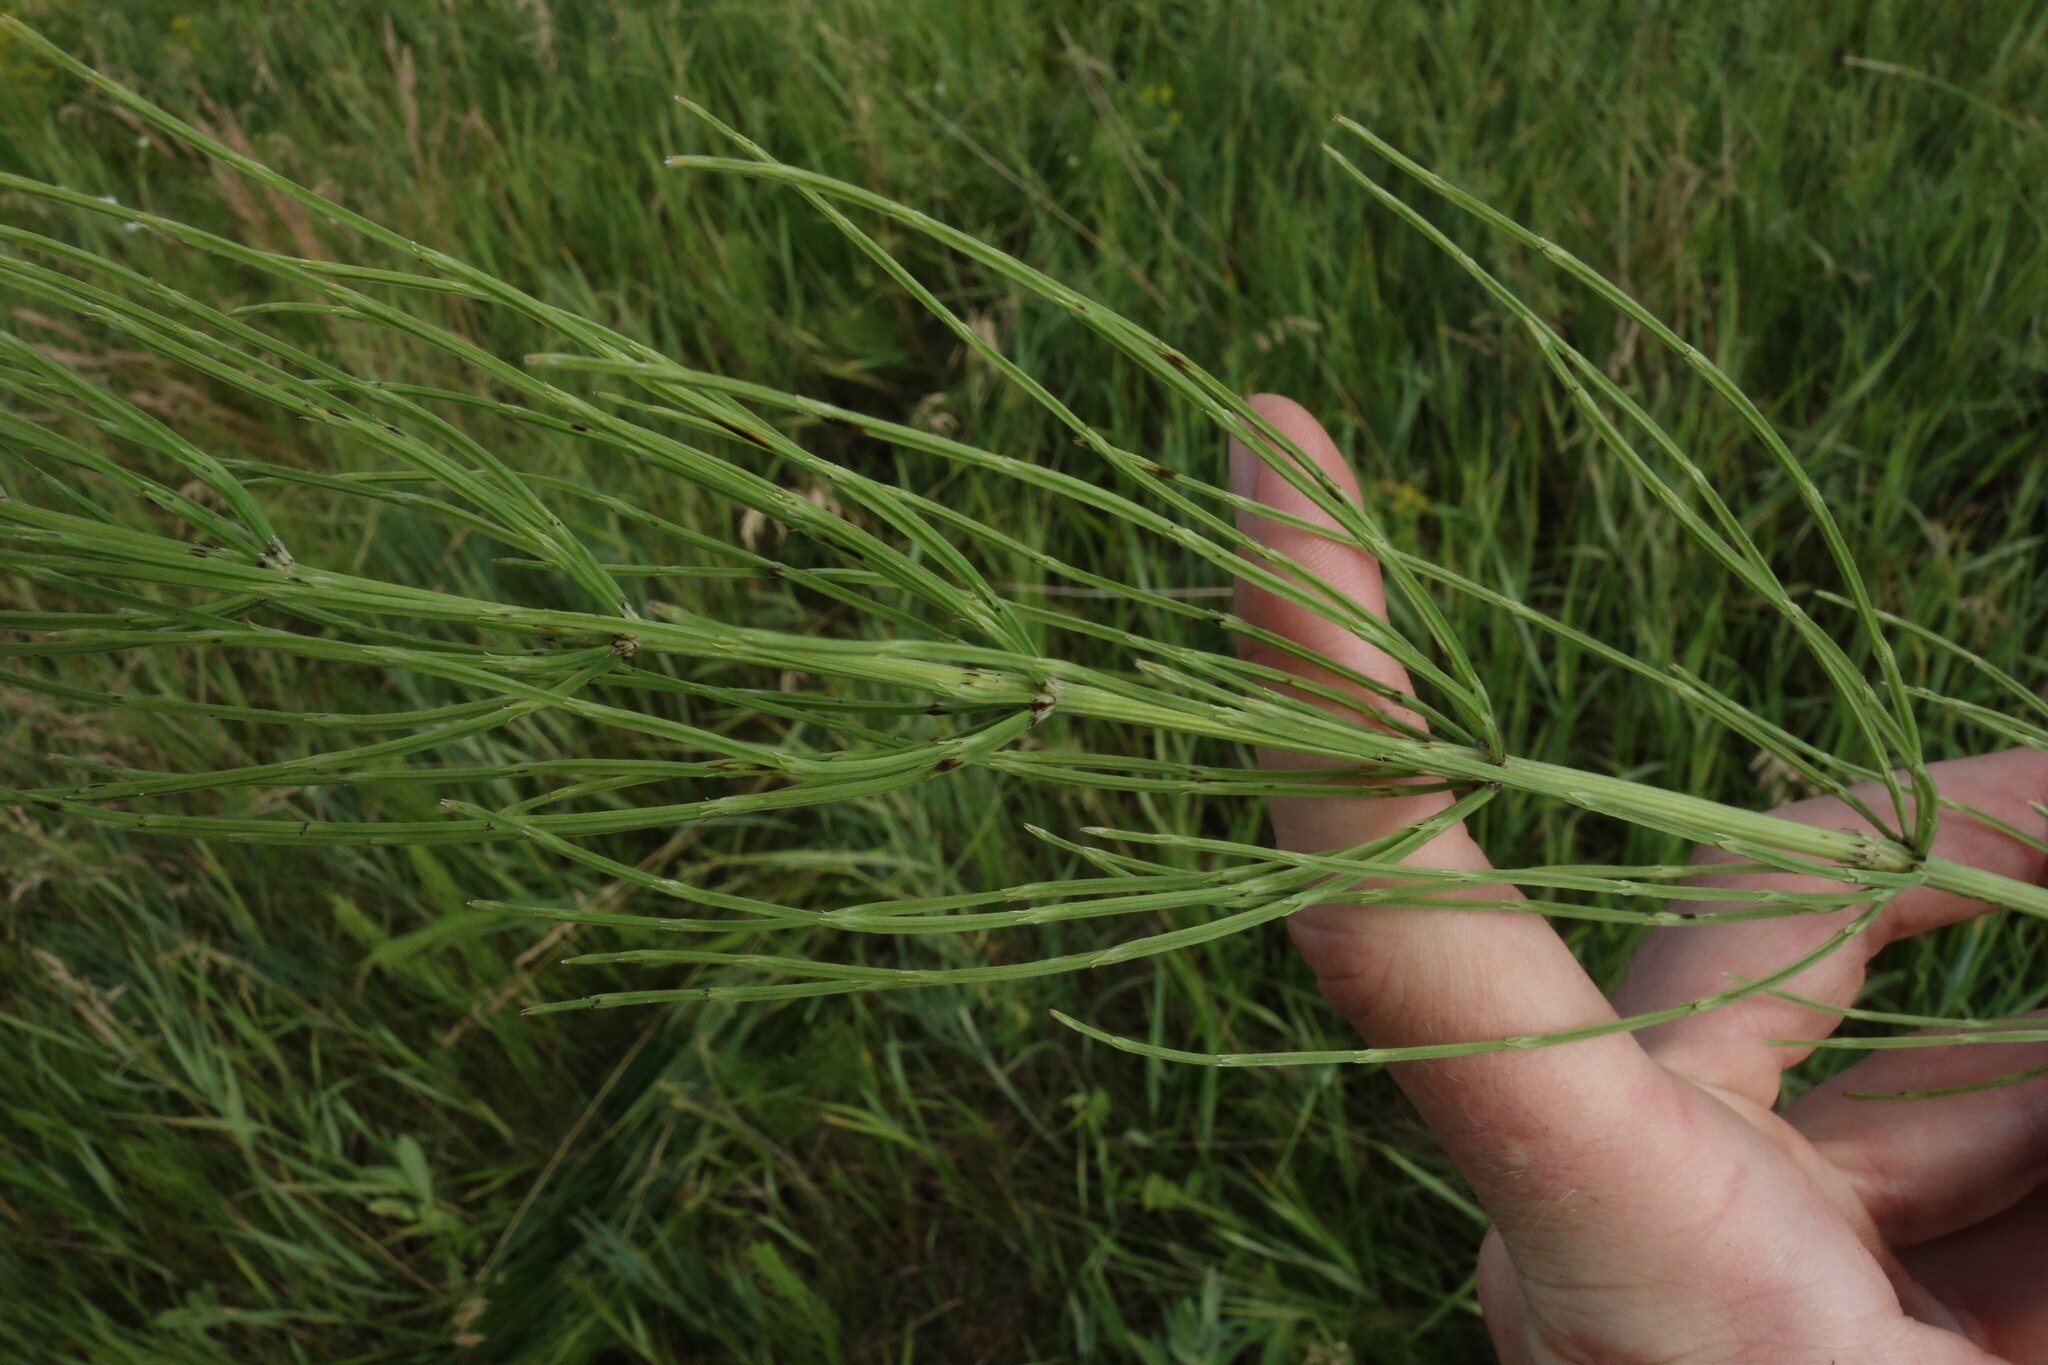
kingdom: Plantae
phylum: Tracheophyta
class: Polypodiopsida
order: Equisetales
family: Equisetaceae
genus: Equisetum
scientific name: Equisetum arvense
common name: Field horsetail
